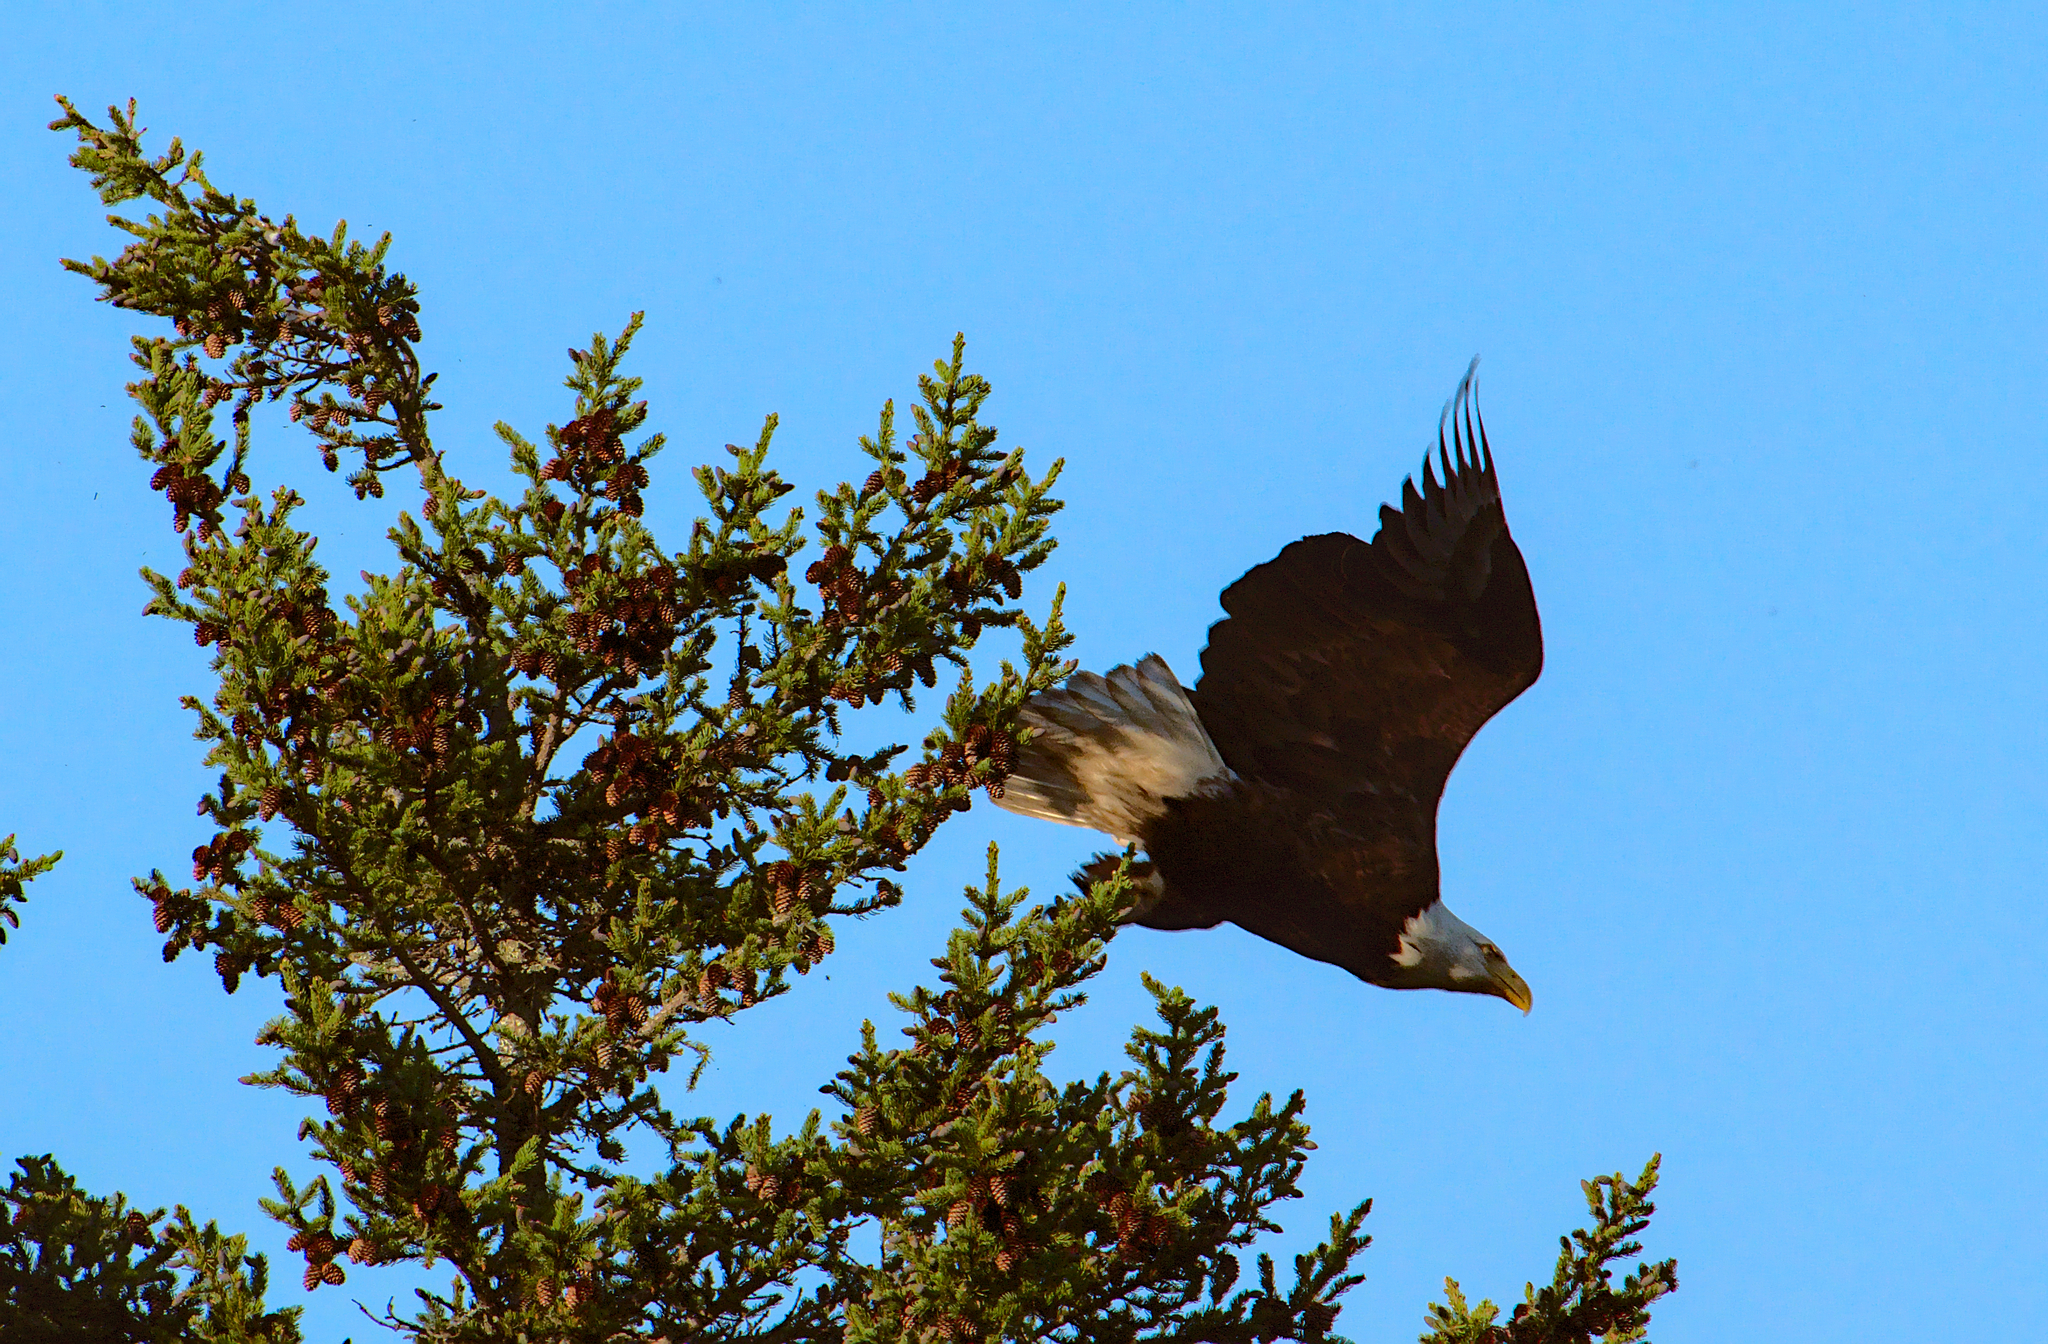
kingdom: Animalia
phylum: Chordata
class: Aves
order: Accipitriformes
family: Accipitridae
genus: Haliaeetus
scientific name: Haliaeetus leucocephalus
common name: Bald eagle
